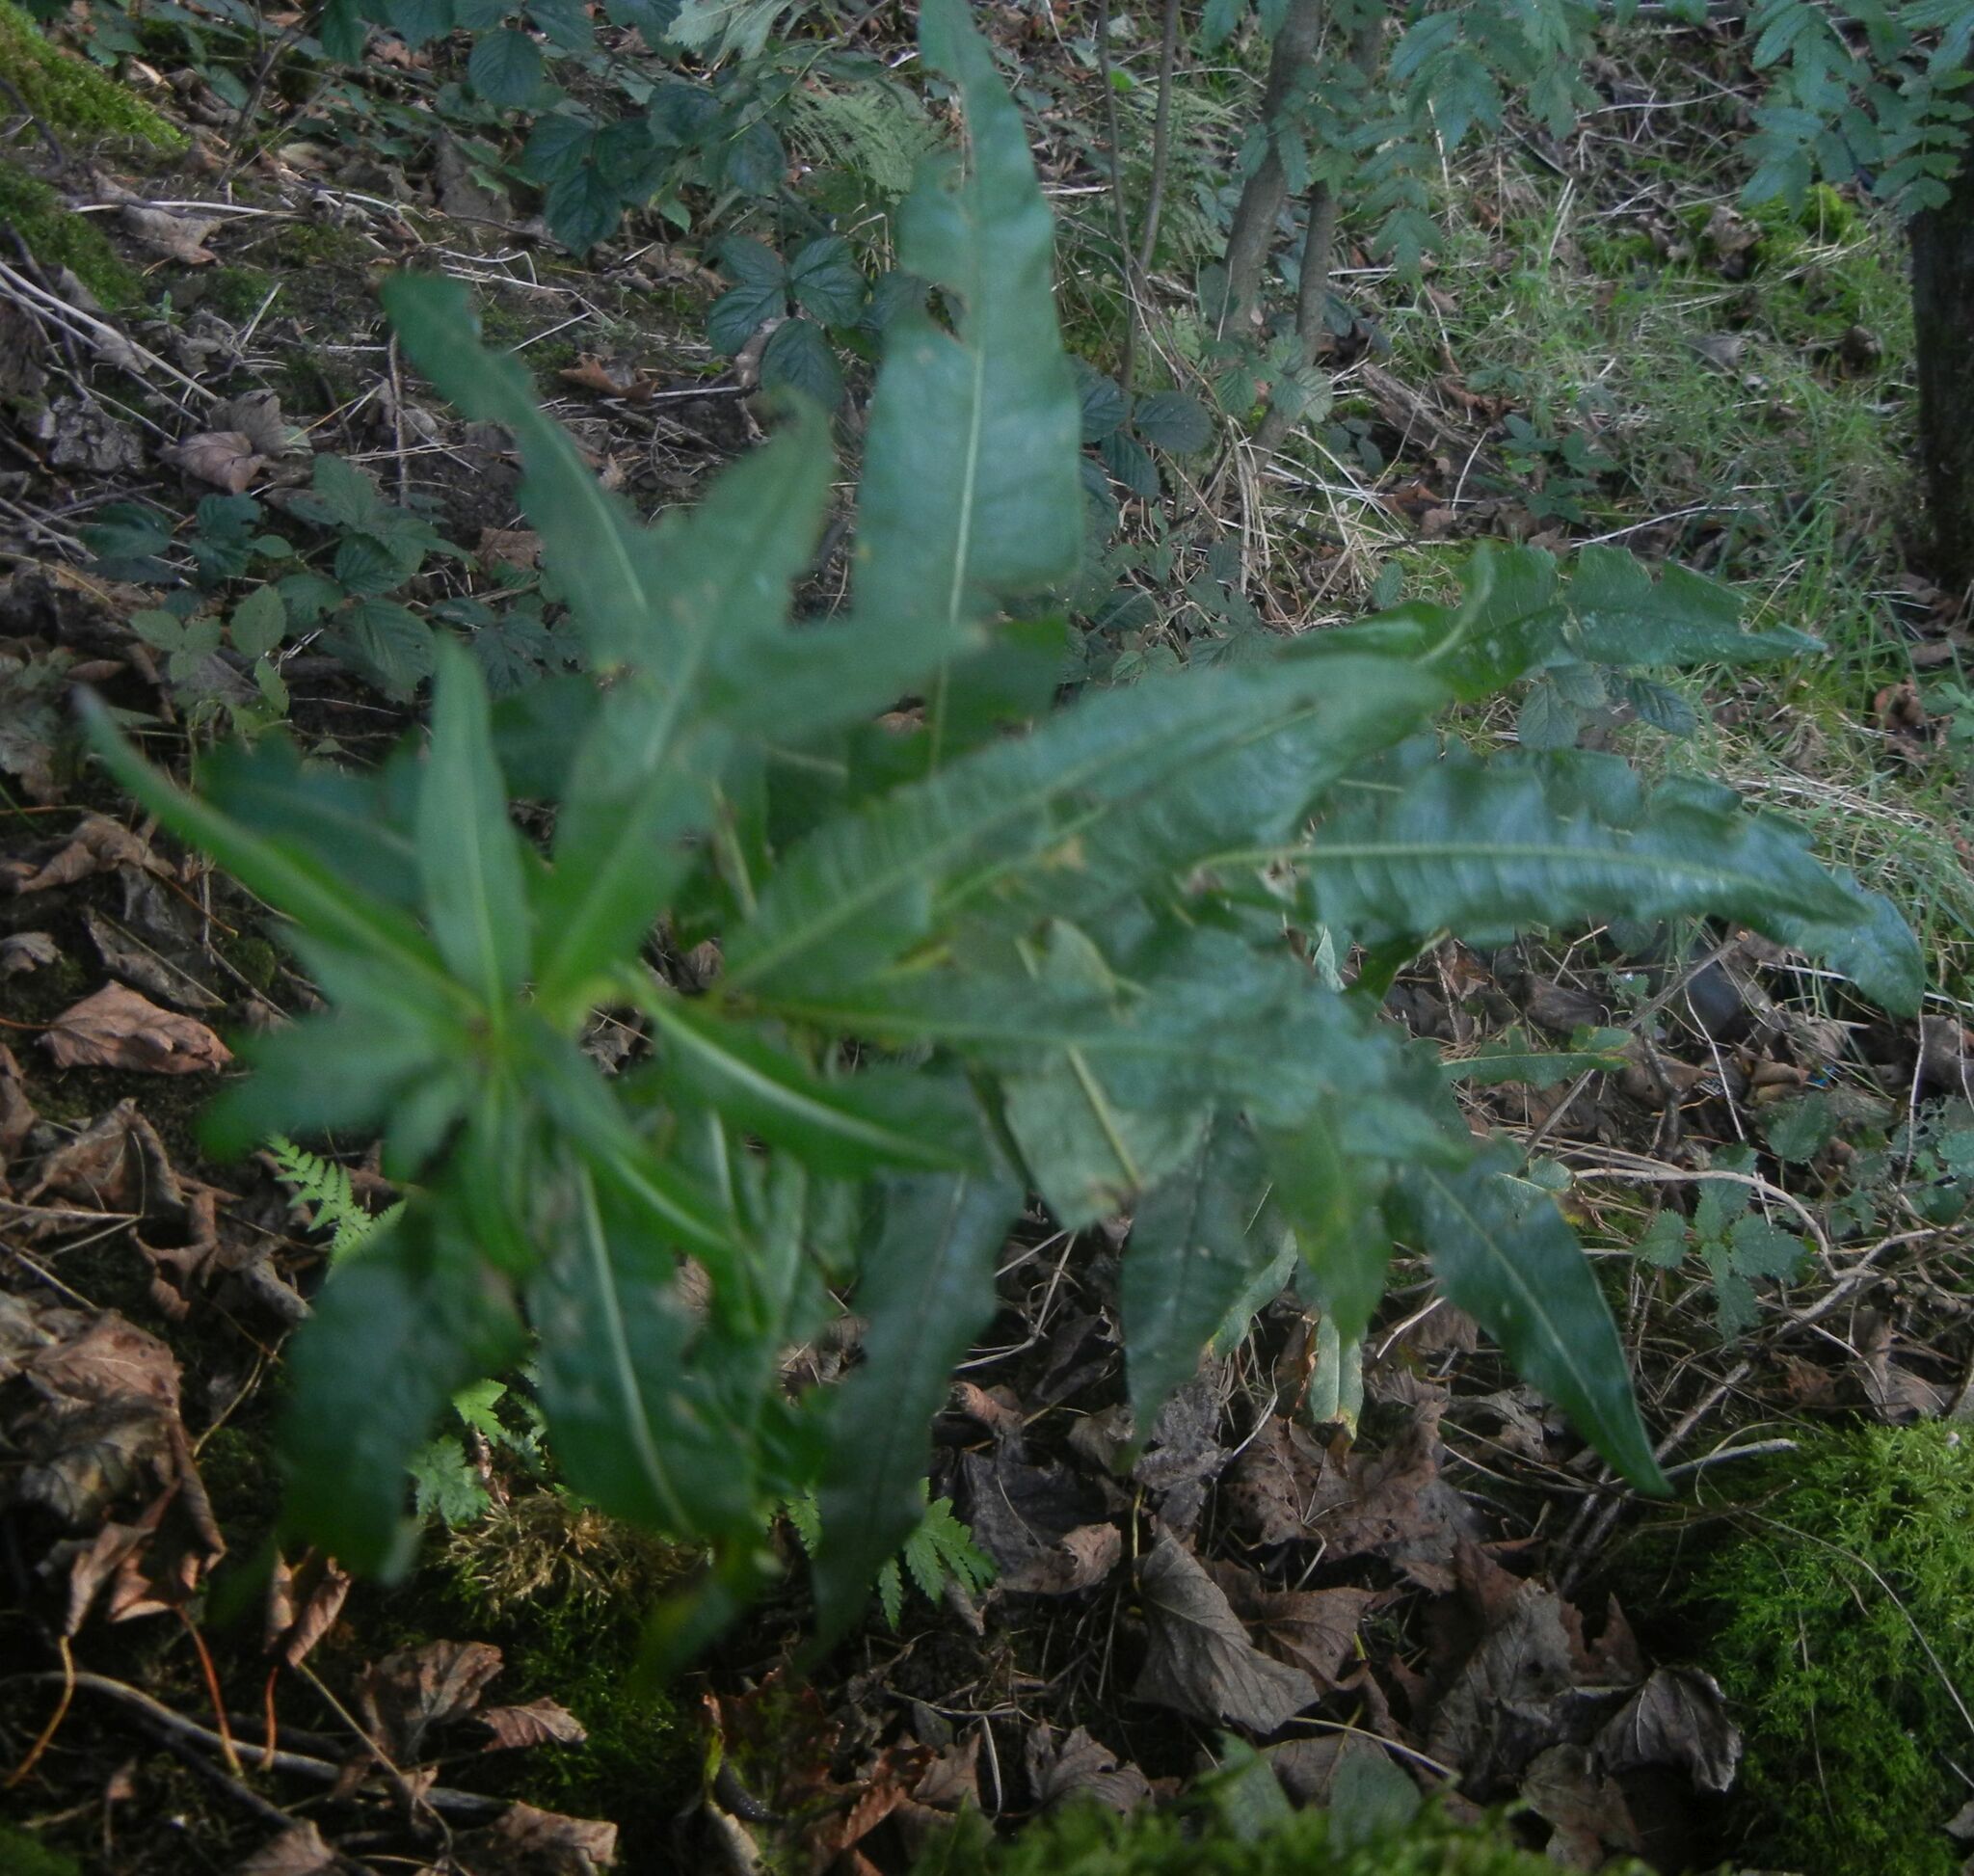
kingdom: Plantae
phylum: Tracheophyta
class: Magnoliopsida
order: Myrtales
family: Onagraceae
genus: Chamaenerion
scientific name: Chamaenerion angustifolium
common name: Fireweed
